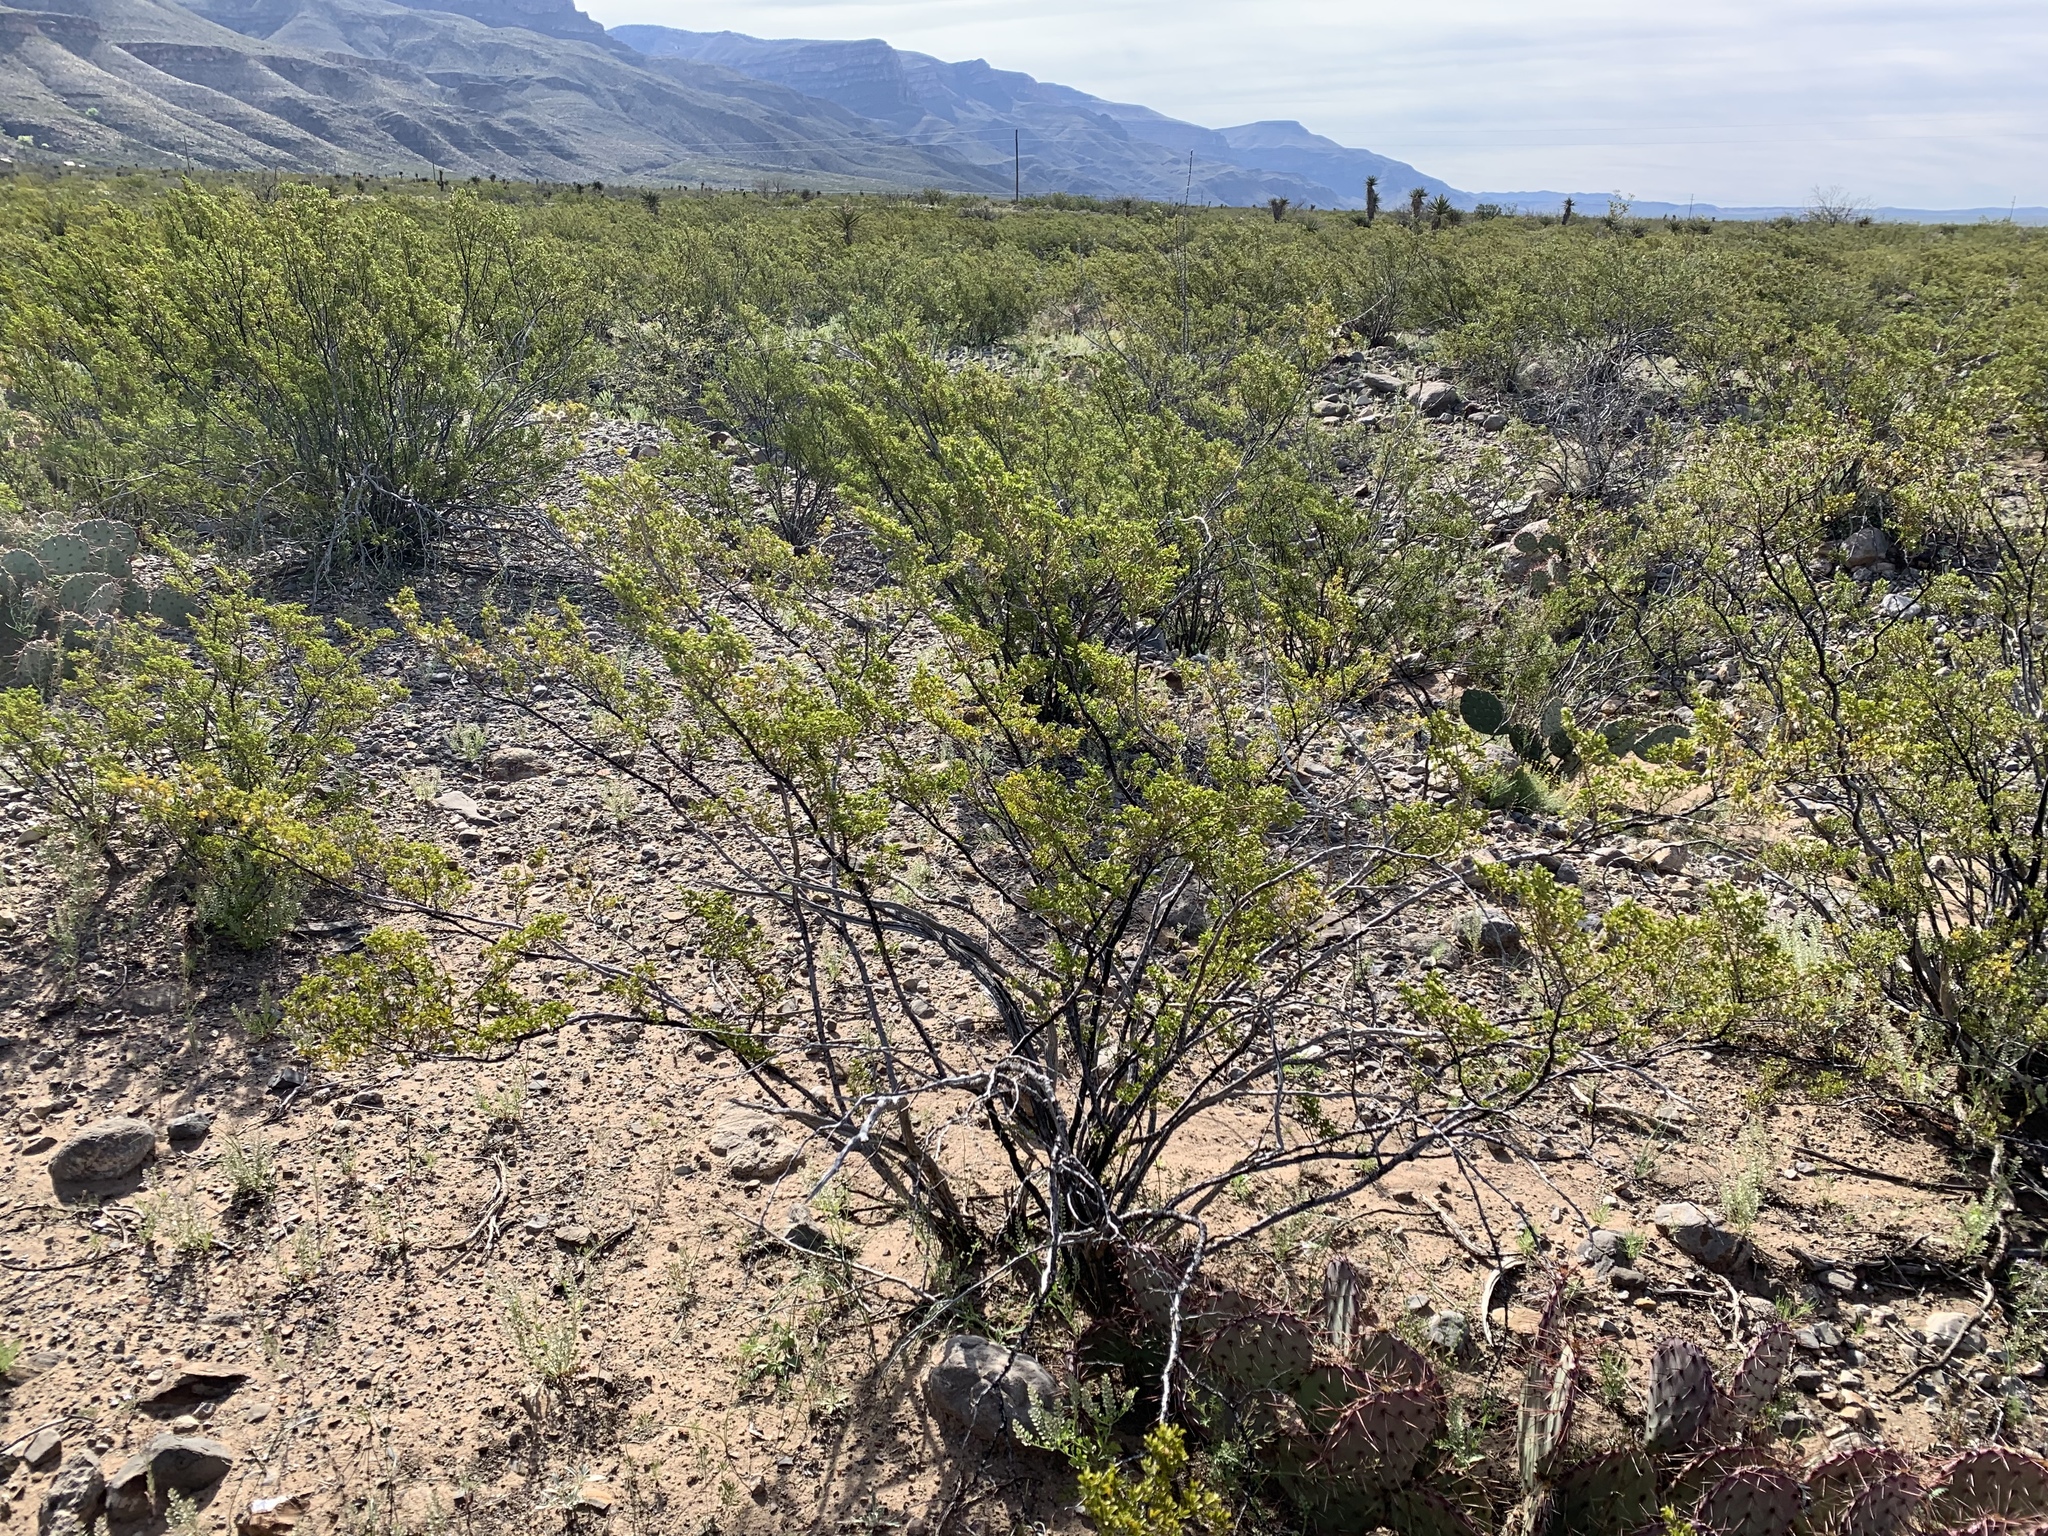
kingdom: Plantae
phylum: Tracheophyta
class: Magnoliopsida
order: Zygophyllales
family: Zygophyllaceae
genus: Larrea
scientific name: Larrea tridentata
